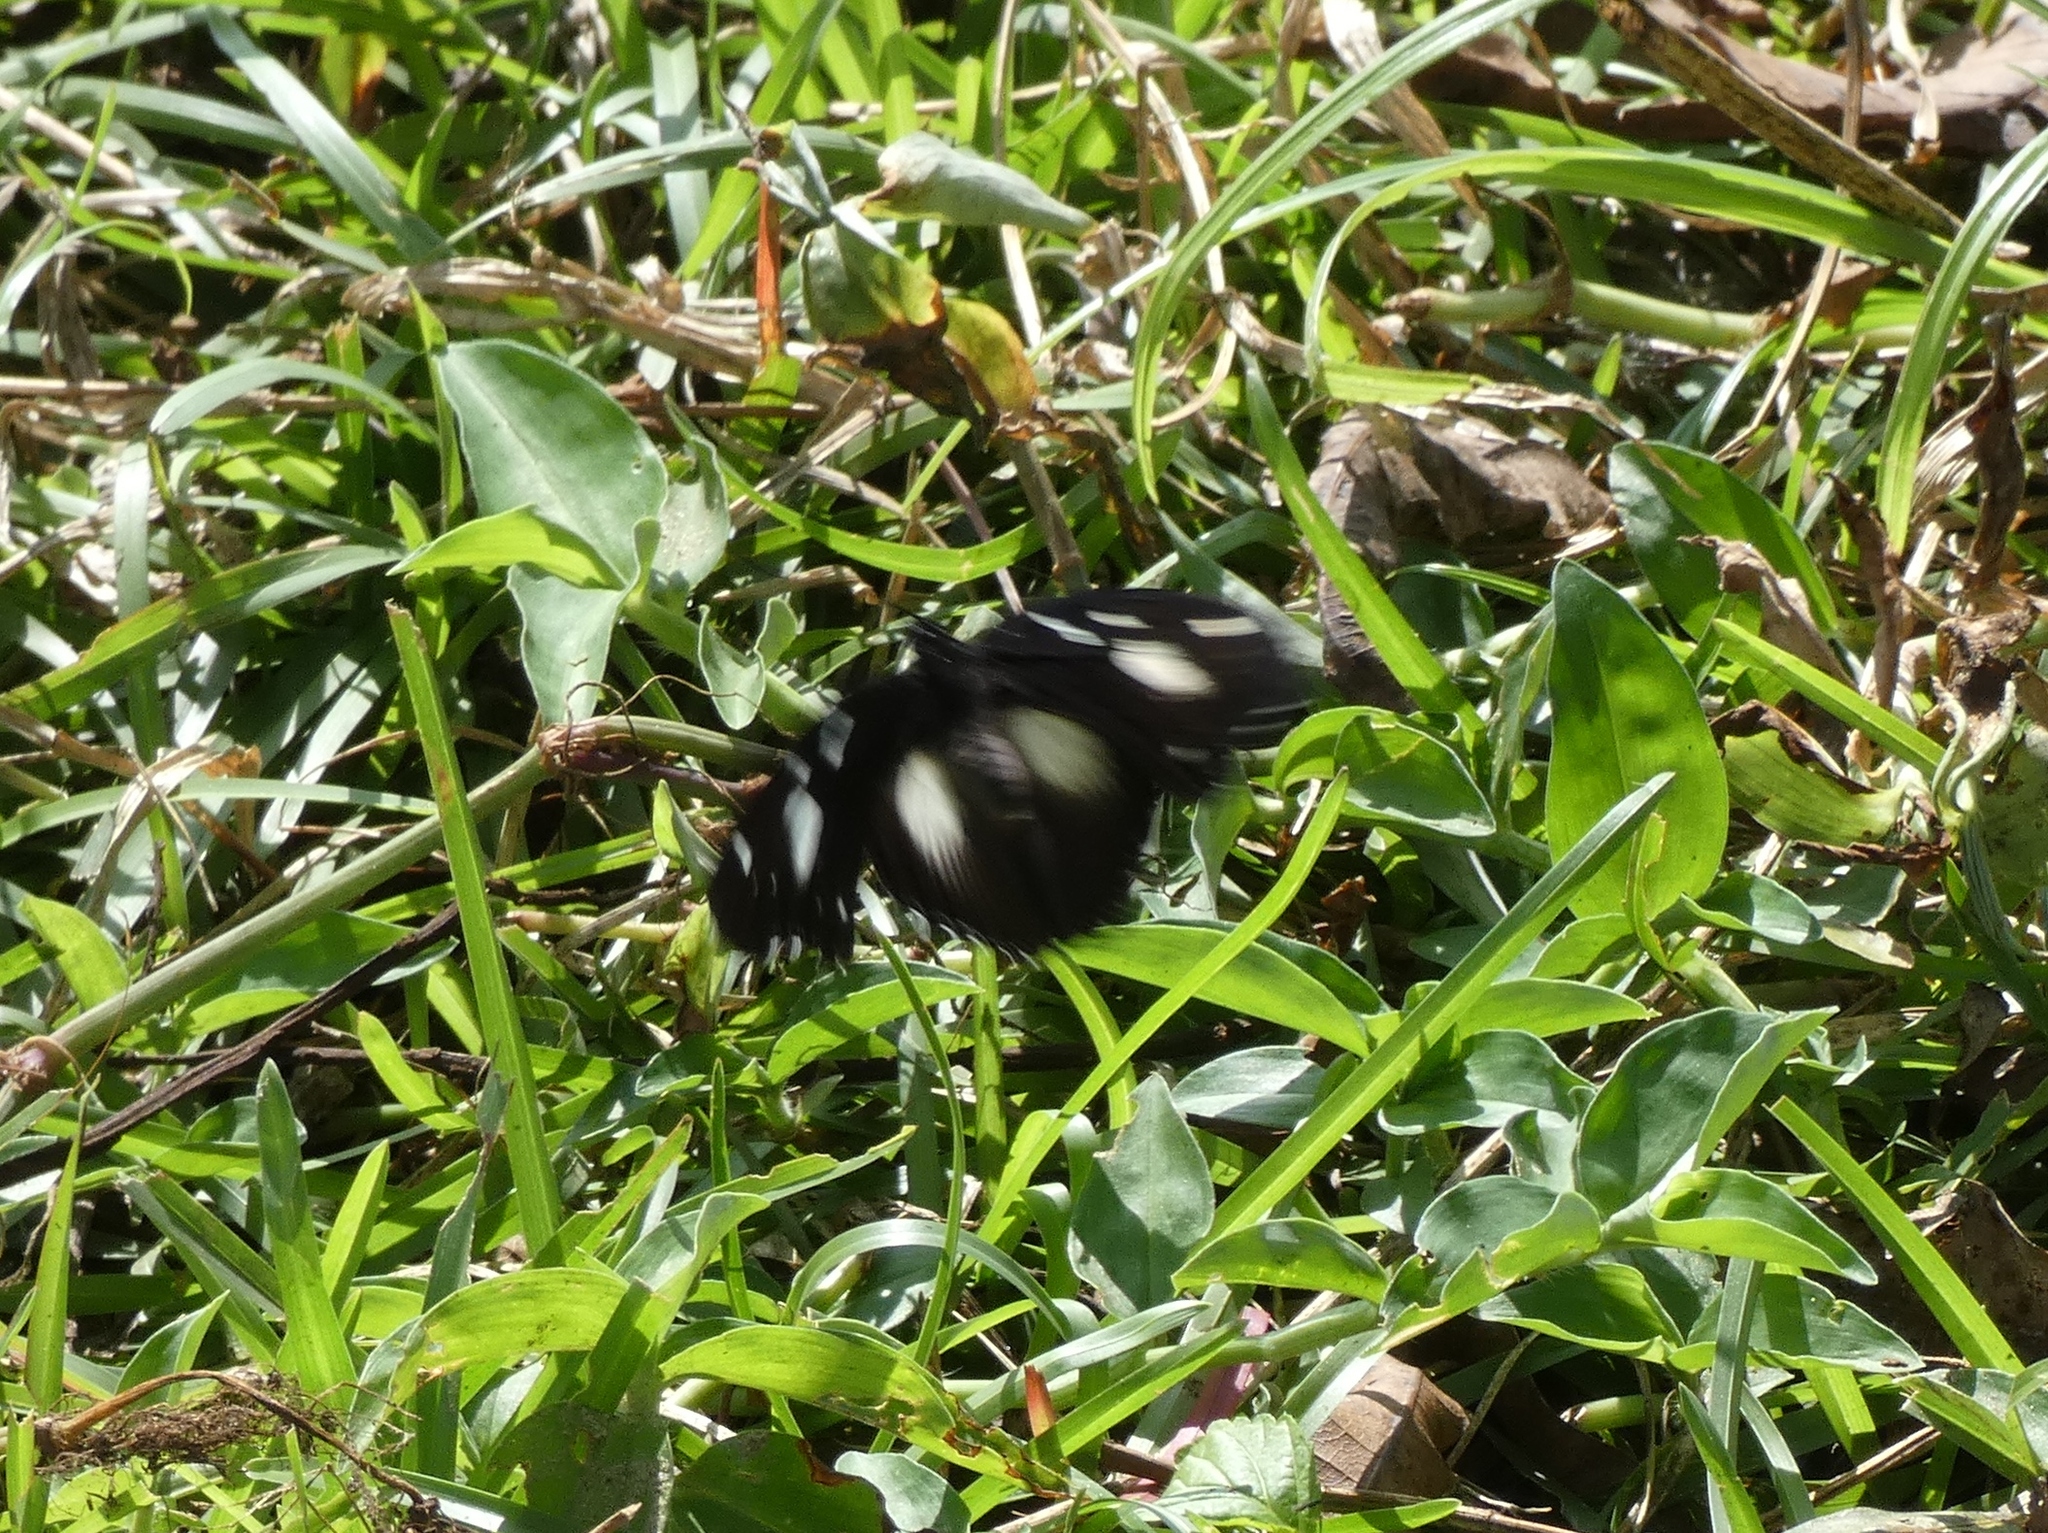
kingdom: Animalia
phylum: Arthropoda
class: Insecta
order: Lepidoptera
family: Nymphalidae
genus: Hypolimnas
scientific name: Hypolimnas dinarcha
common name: Large variable diadem
